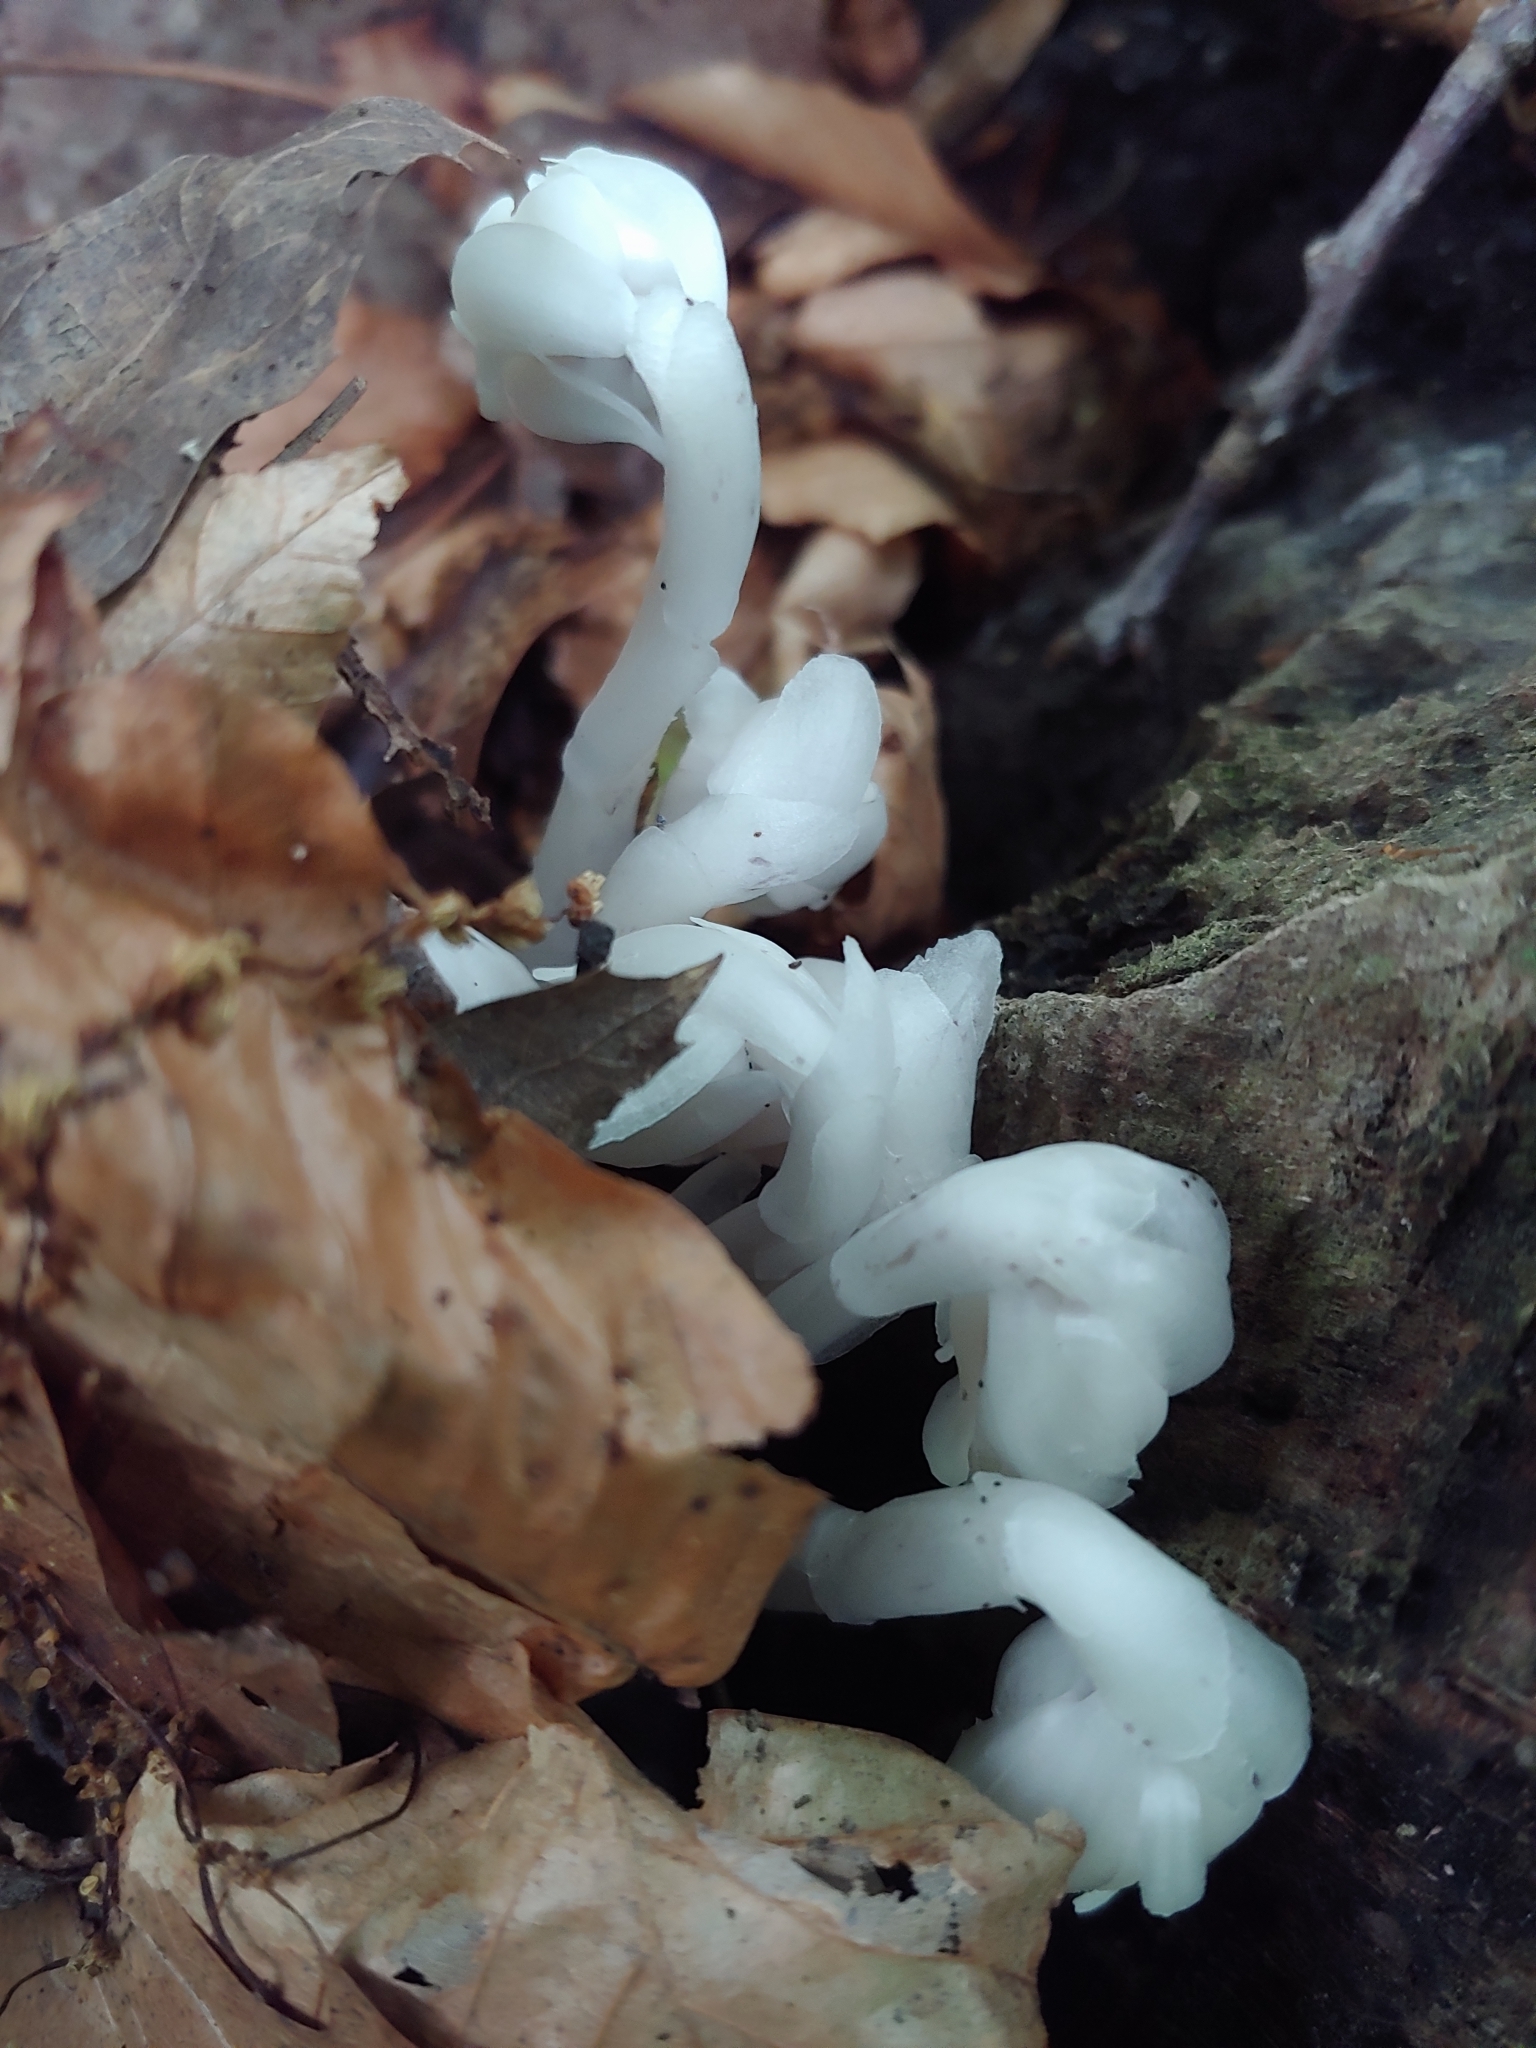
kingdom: Plantae
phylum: Tracheophyta
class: Magnoliopsida
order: Ericales
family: Ericaceae
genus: Monotropa
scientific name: Monotropa uniflora
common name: Convulsion root
